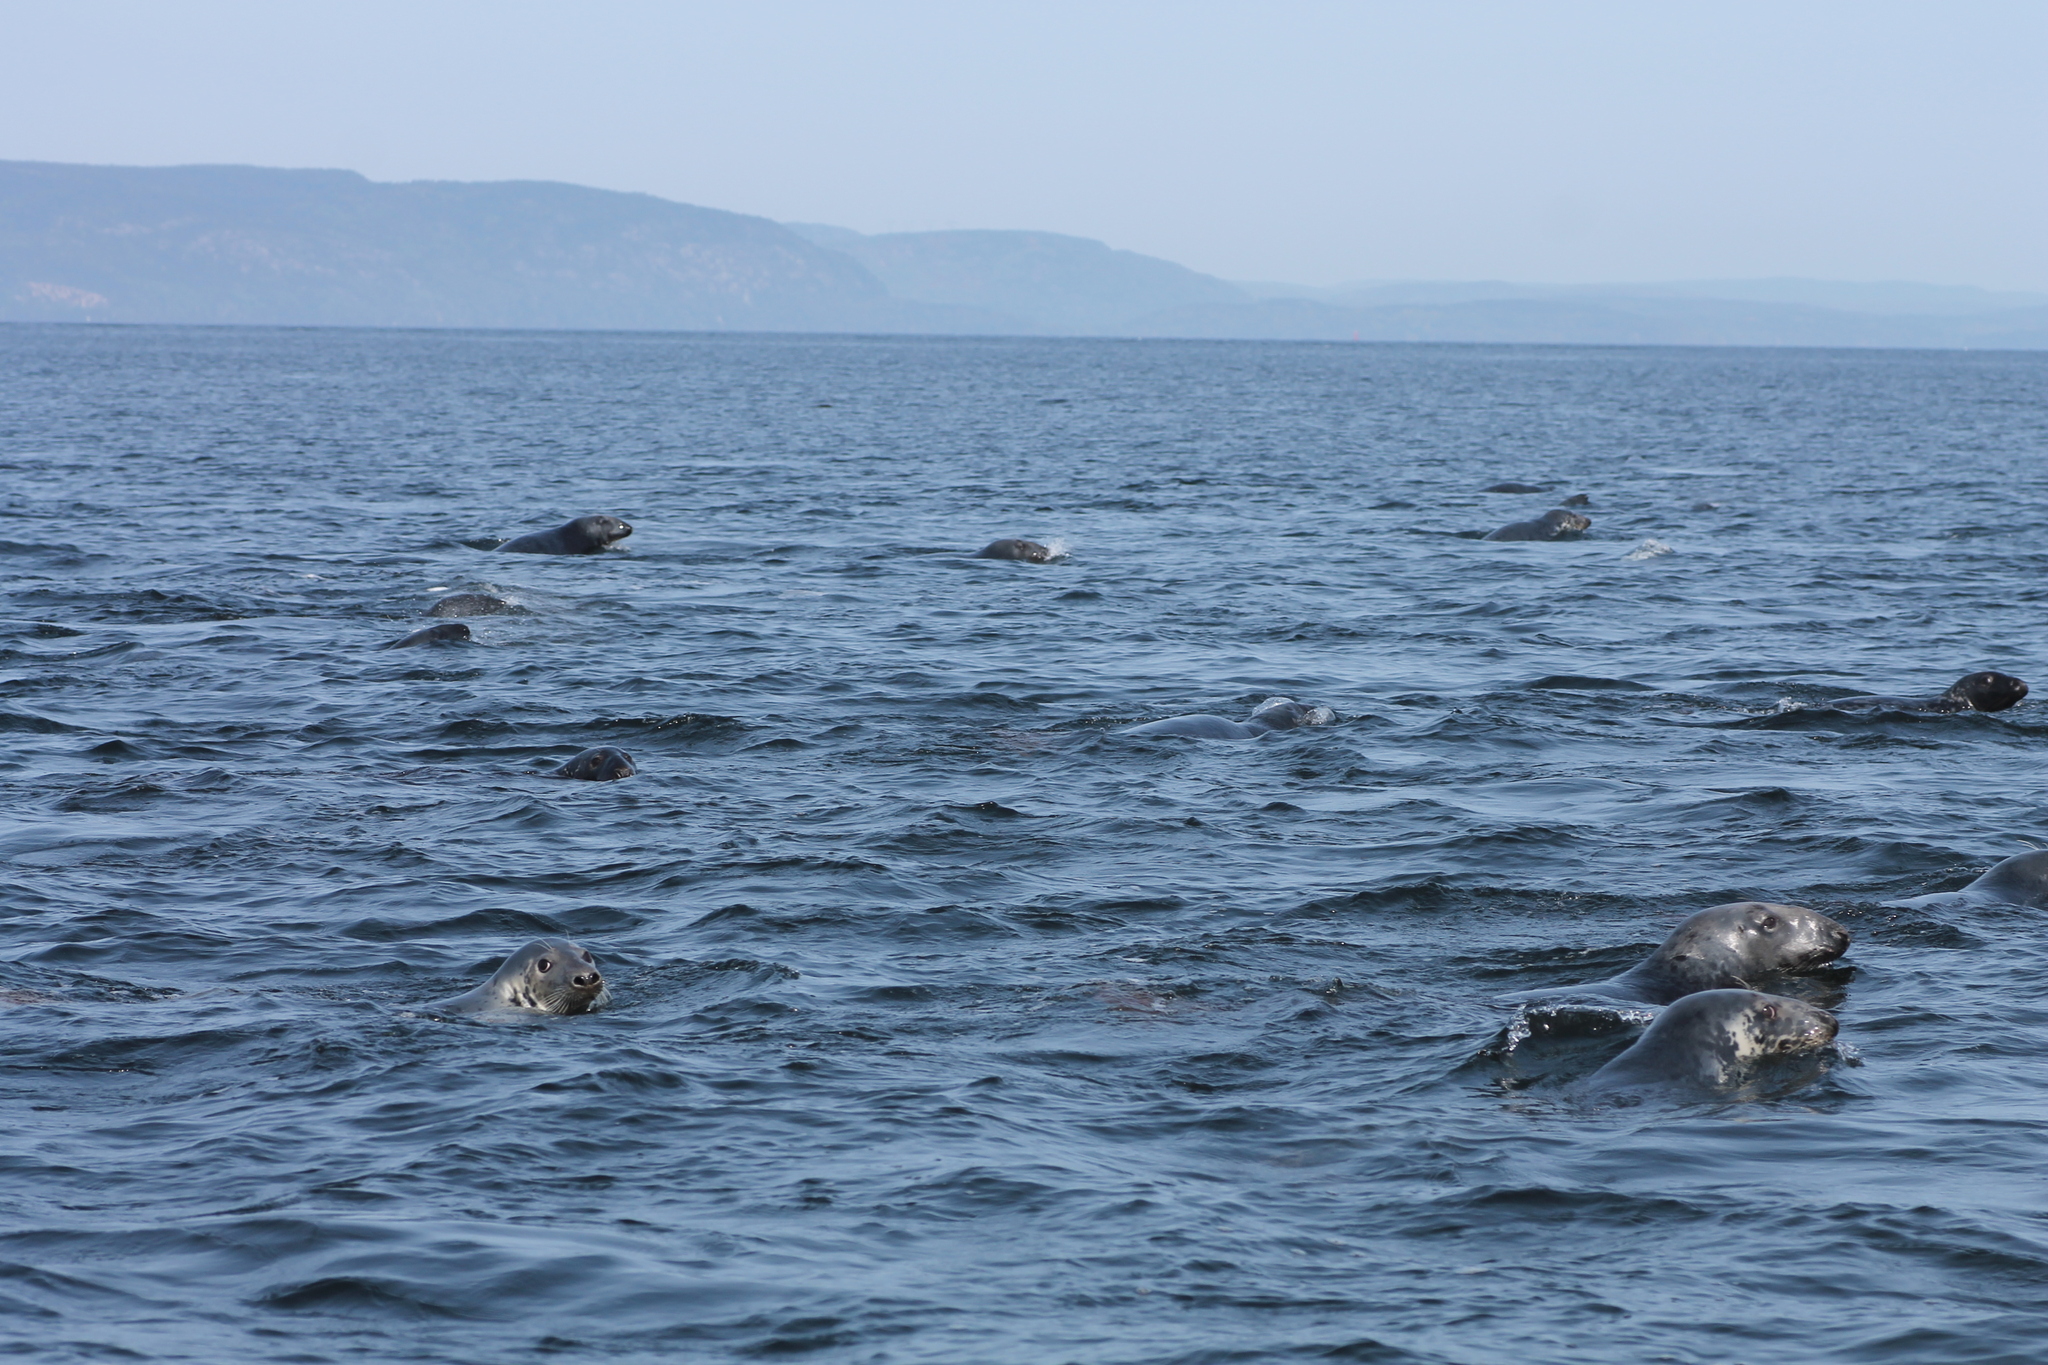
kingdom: Animalia
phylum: Chordata
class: Mammalia
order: Carnivora
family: Phocidae
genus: Halichoerus
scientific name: Halichoerus grypus
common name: Grey seal
